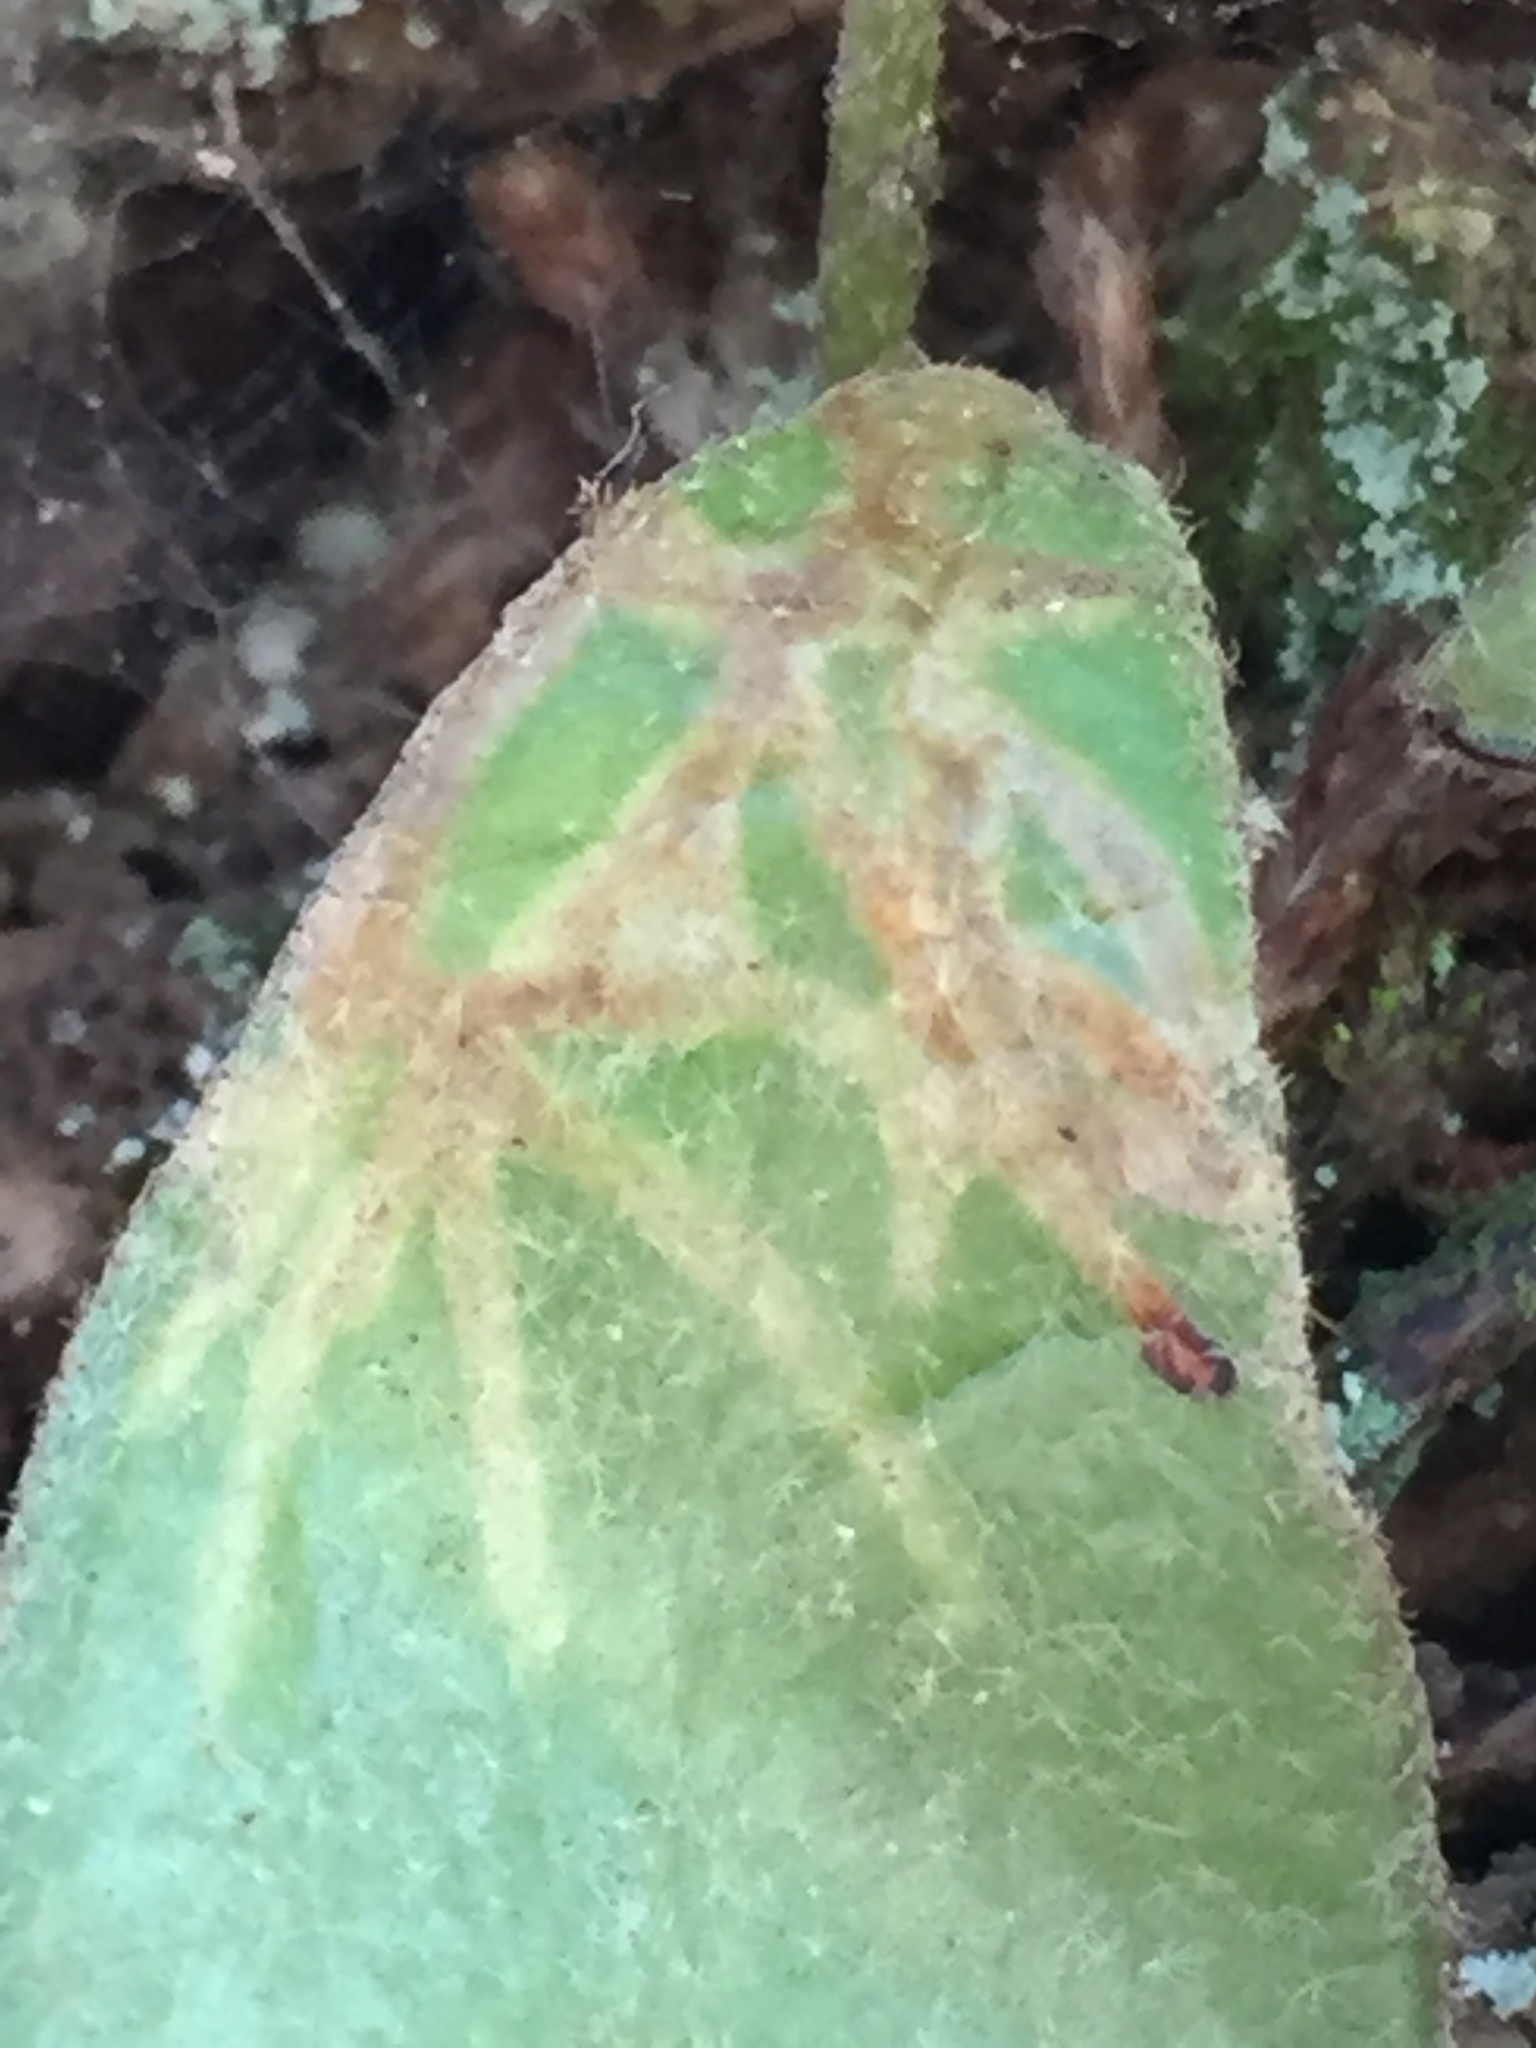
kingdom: Animalia
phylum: Arthropoda
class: Insecta
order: Lepidoptera
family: Tortricidae
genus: Philocryptica
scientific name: Philocryptica polypodii
